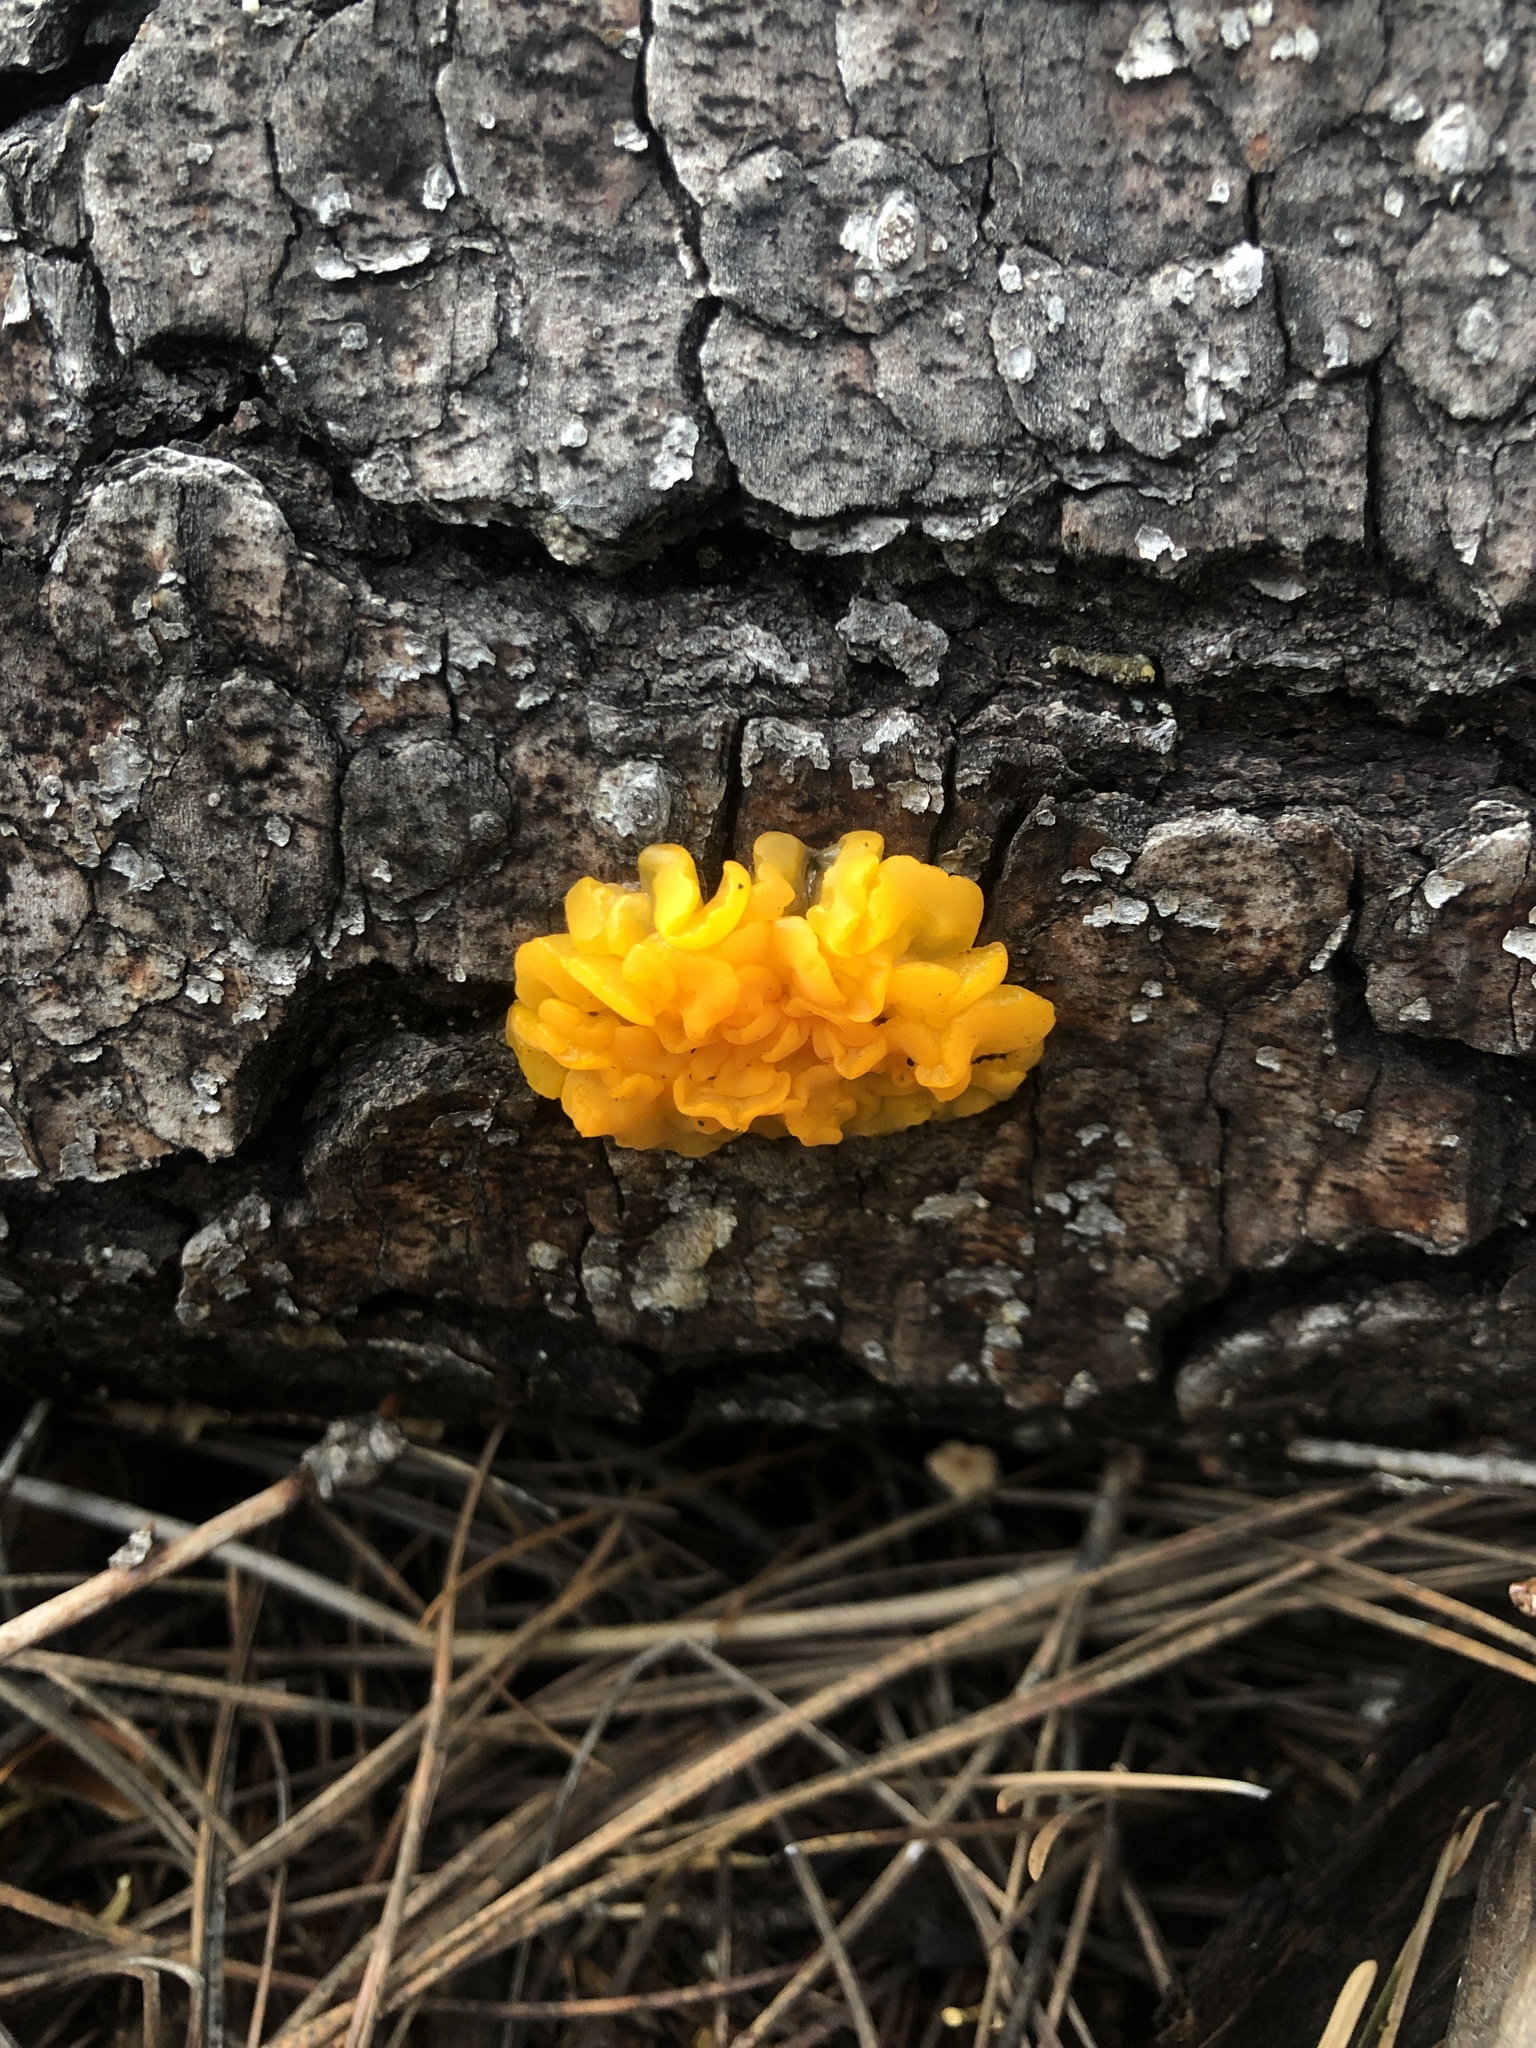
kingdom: Fungi
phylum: Basidiomycota
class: Dacrymycetes
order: Dacrymycetales
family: Dacrymycetaceae
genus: Dacrymyces
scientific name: Dacrymyces dictyosporus
